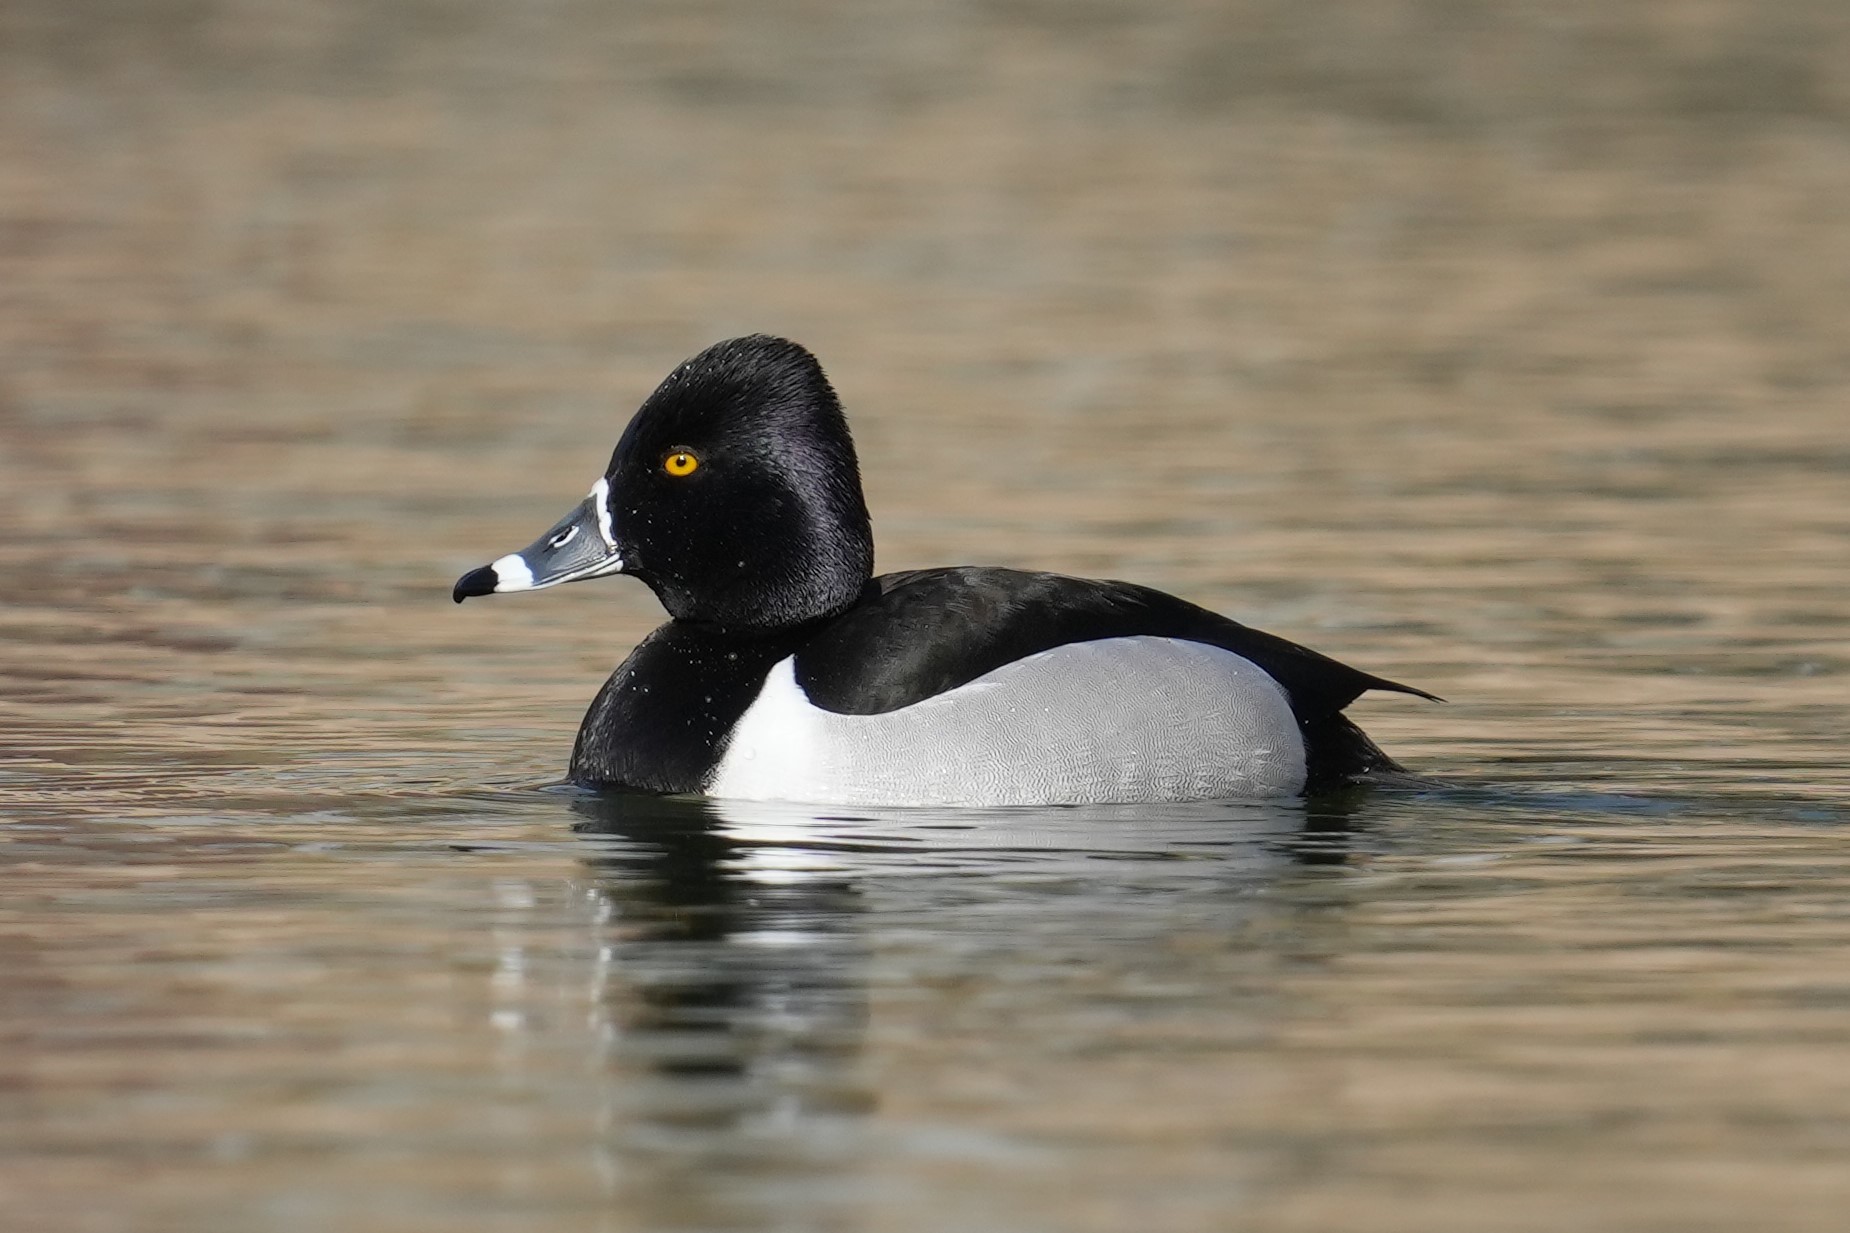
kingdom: Animalia
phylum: Chordata
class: Aves
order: Anseriformes
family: Anatidae
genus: Aythya
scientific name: Aythya collaris
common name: Ring-necked duck
